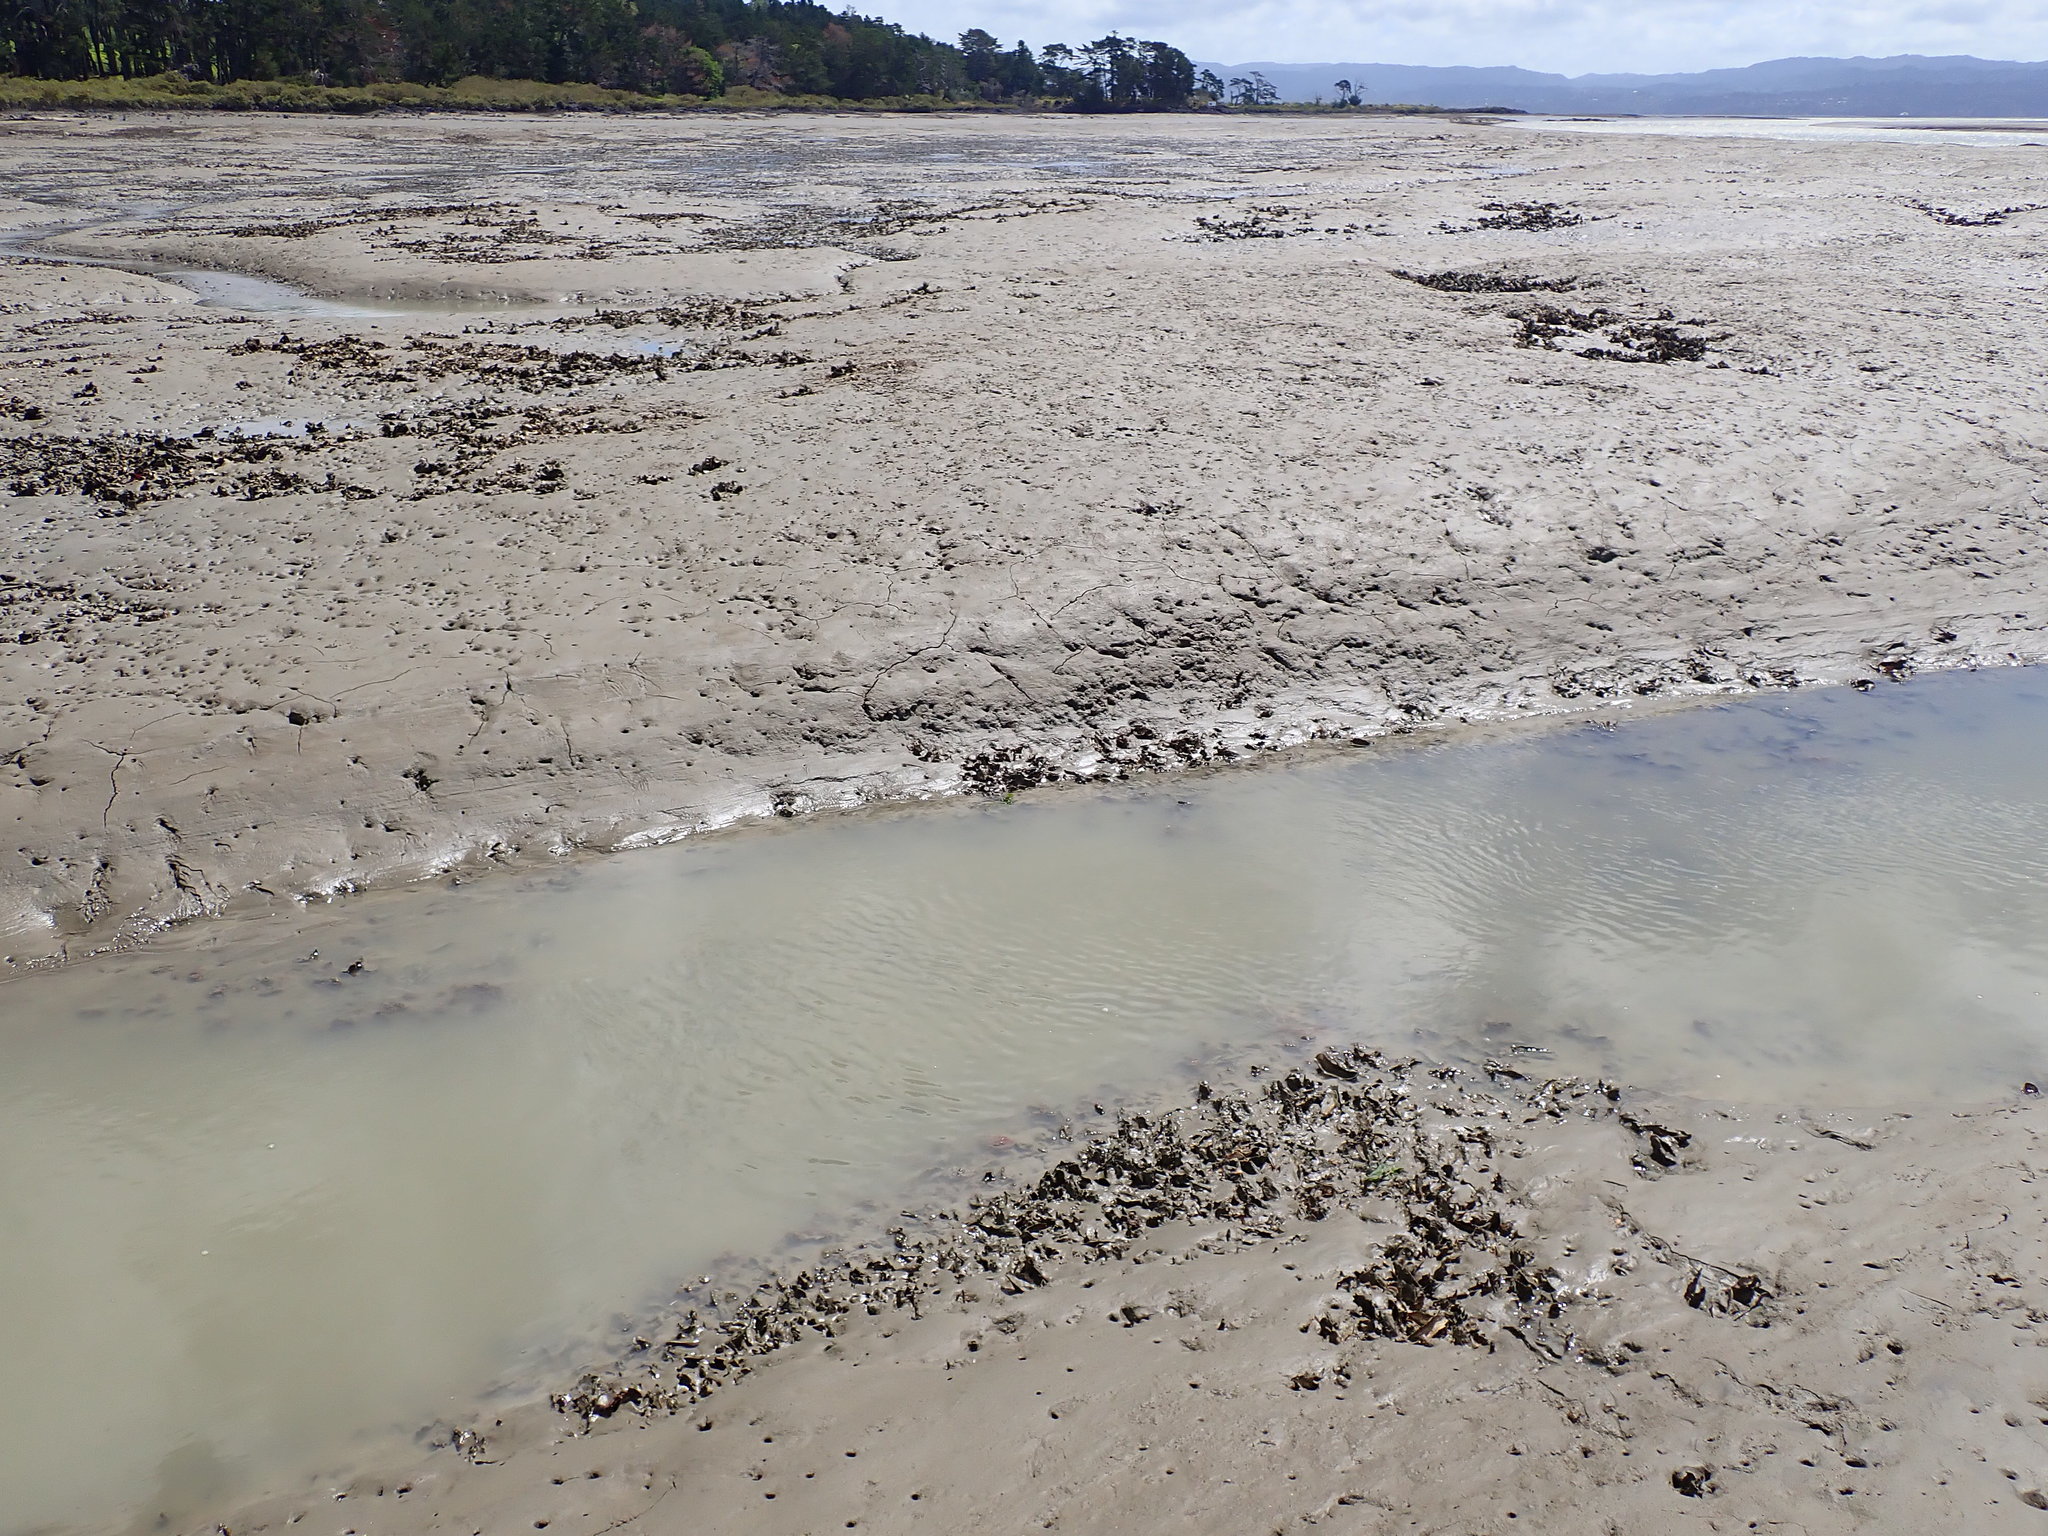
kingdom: Animalia
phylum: Mollusca
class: Bivalvia
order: Ostreida
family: Ostreidae
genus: Magallana
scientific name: Magallana gigas
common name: Pacific oyster
